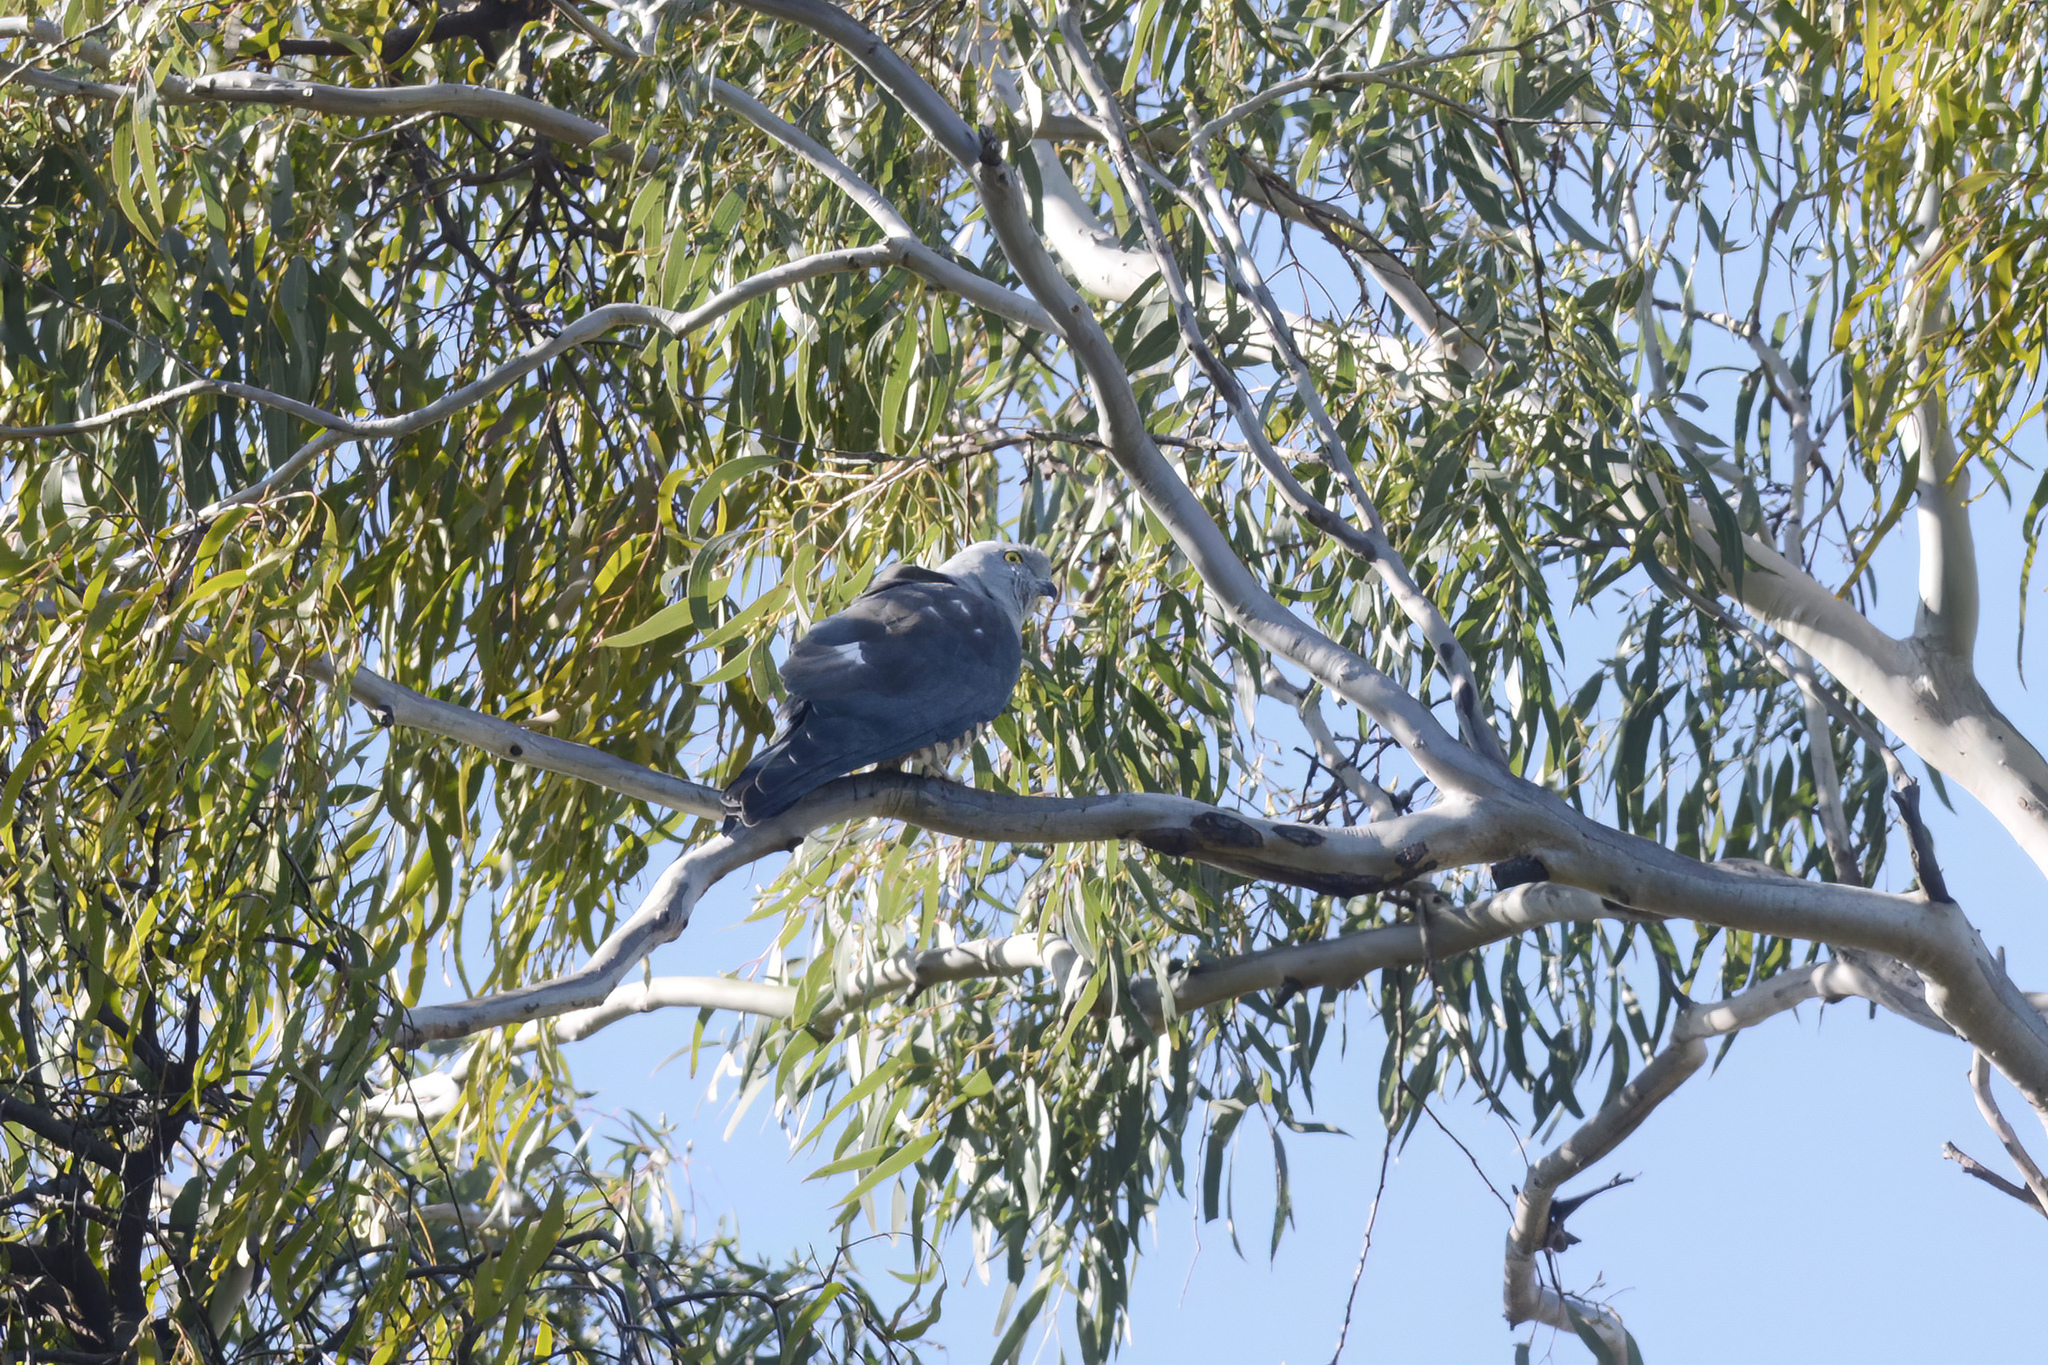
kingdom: Animalia
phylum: Chordata
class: Aves
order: Accipitriformes
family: Accipitridae
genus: Aviceda
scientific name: Aviceda subcristata
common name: Pacific baza
